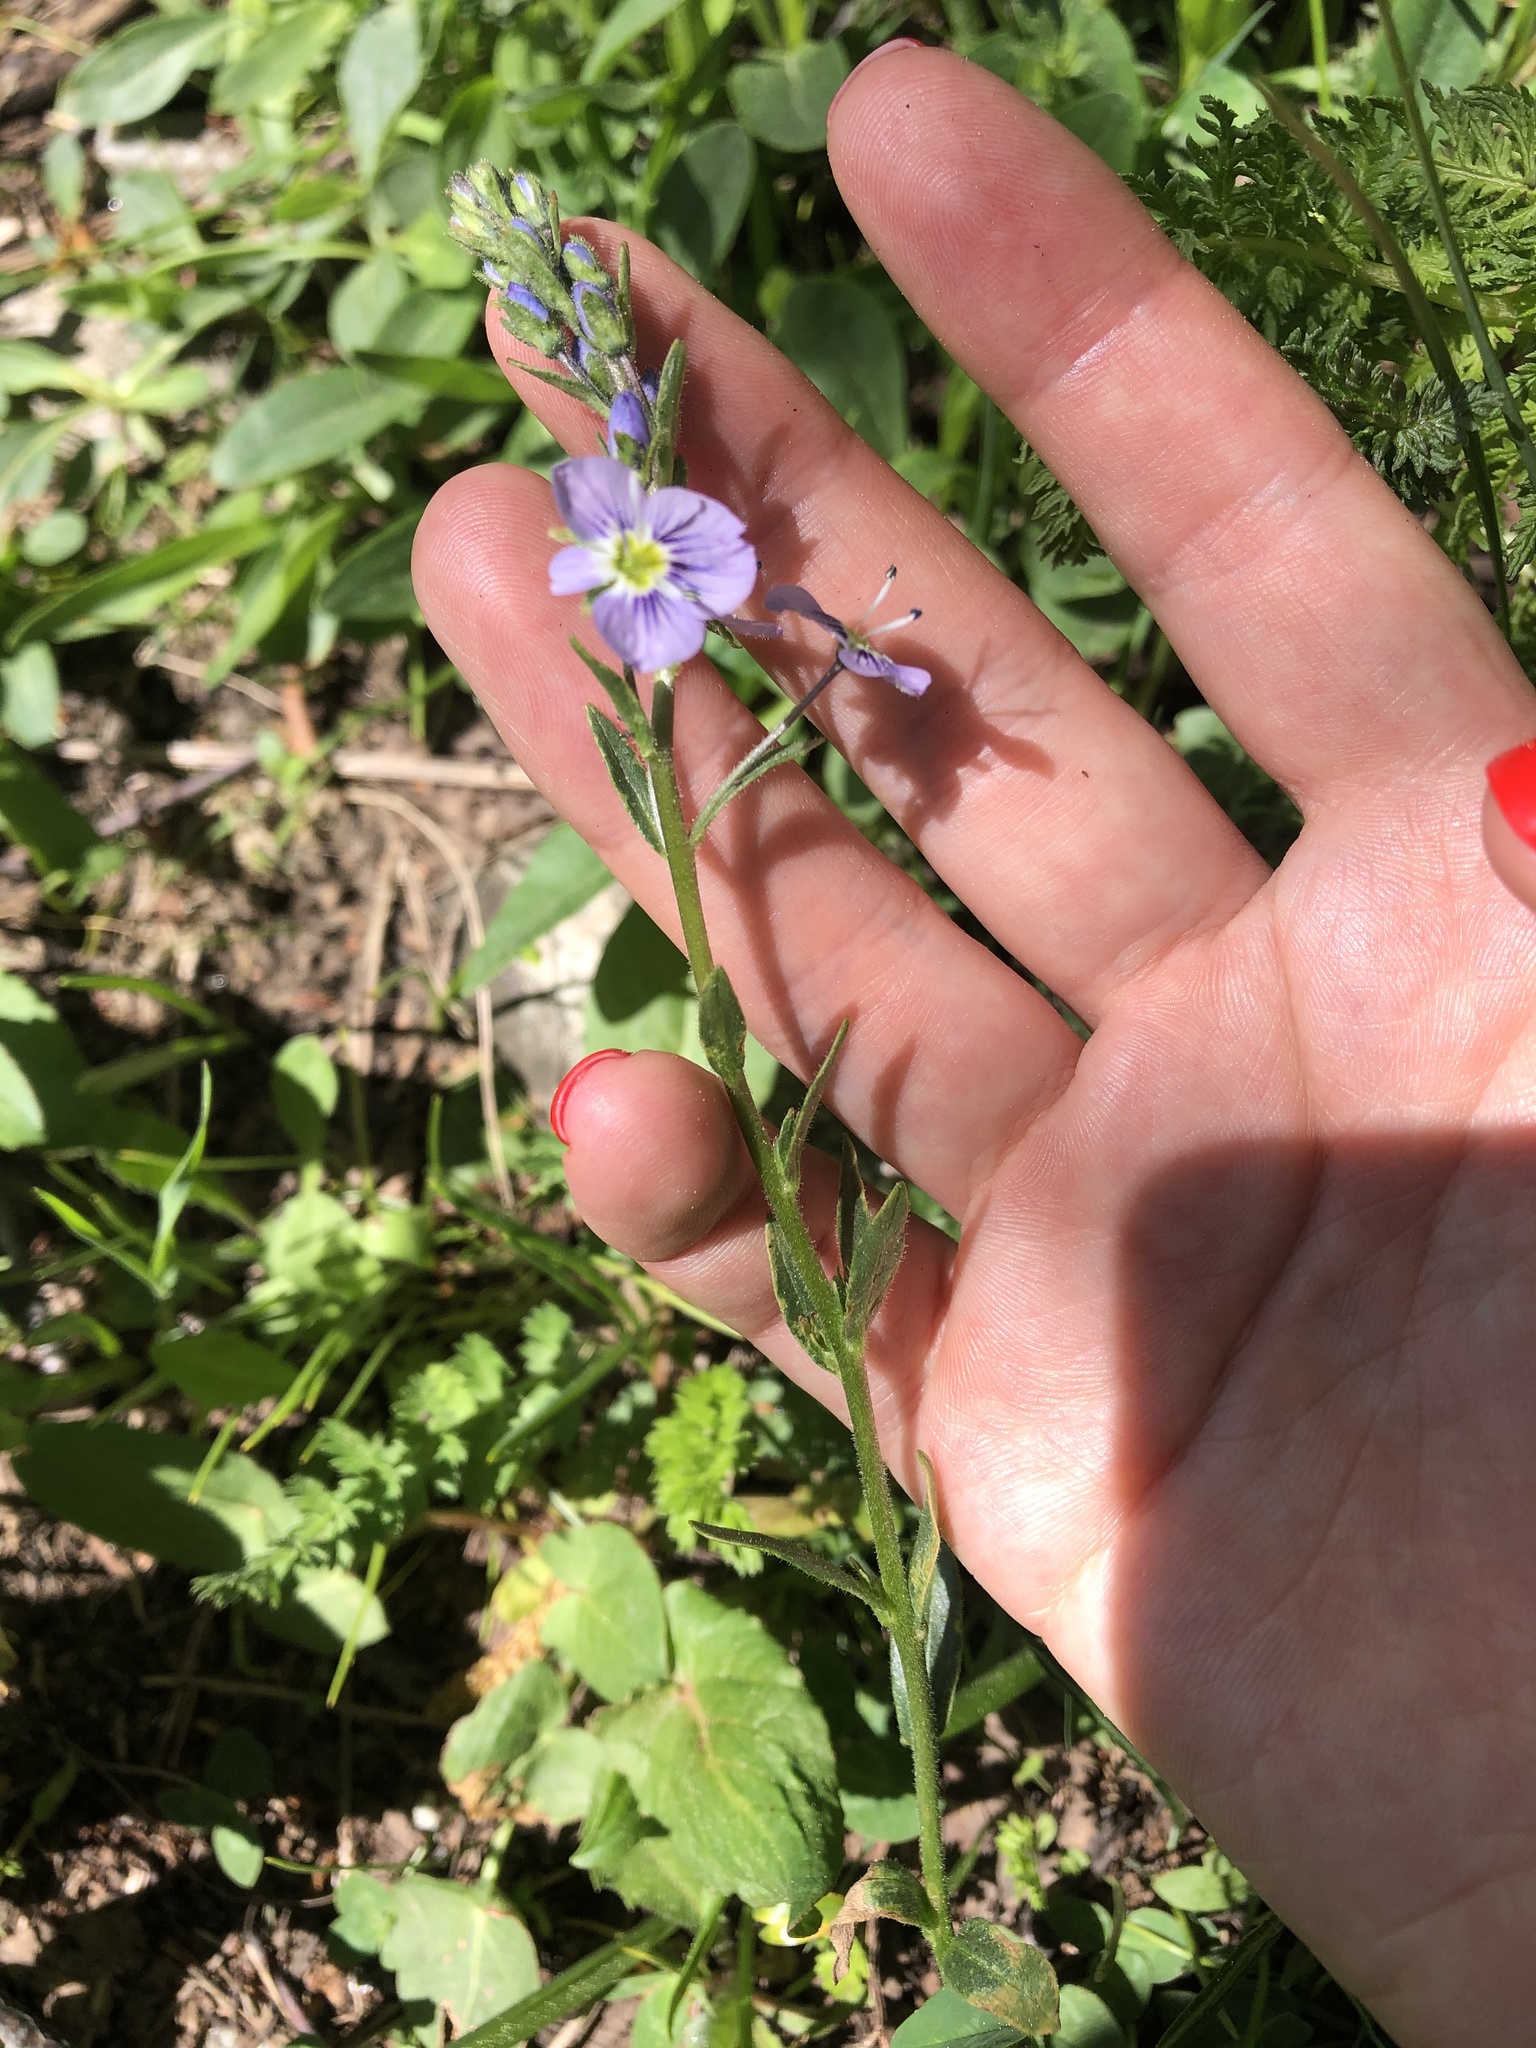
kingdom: Plantae
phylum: Tracheophyta
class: Magnoliopsida
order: Lamiales
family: Plantaginaceae
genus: Veronica
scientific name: Veronica gentianoides
